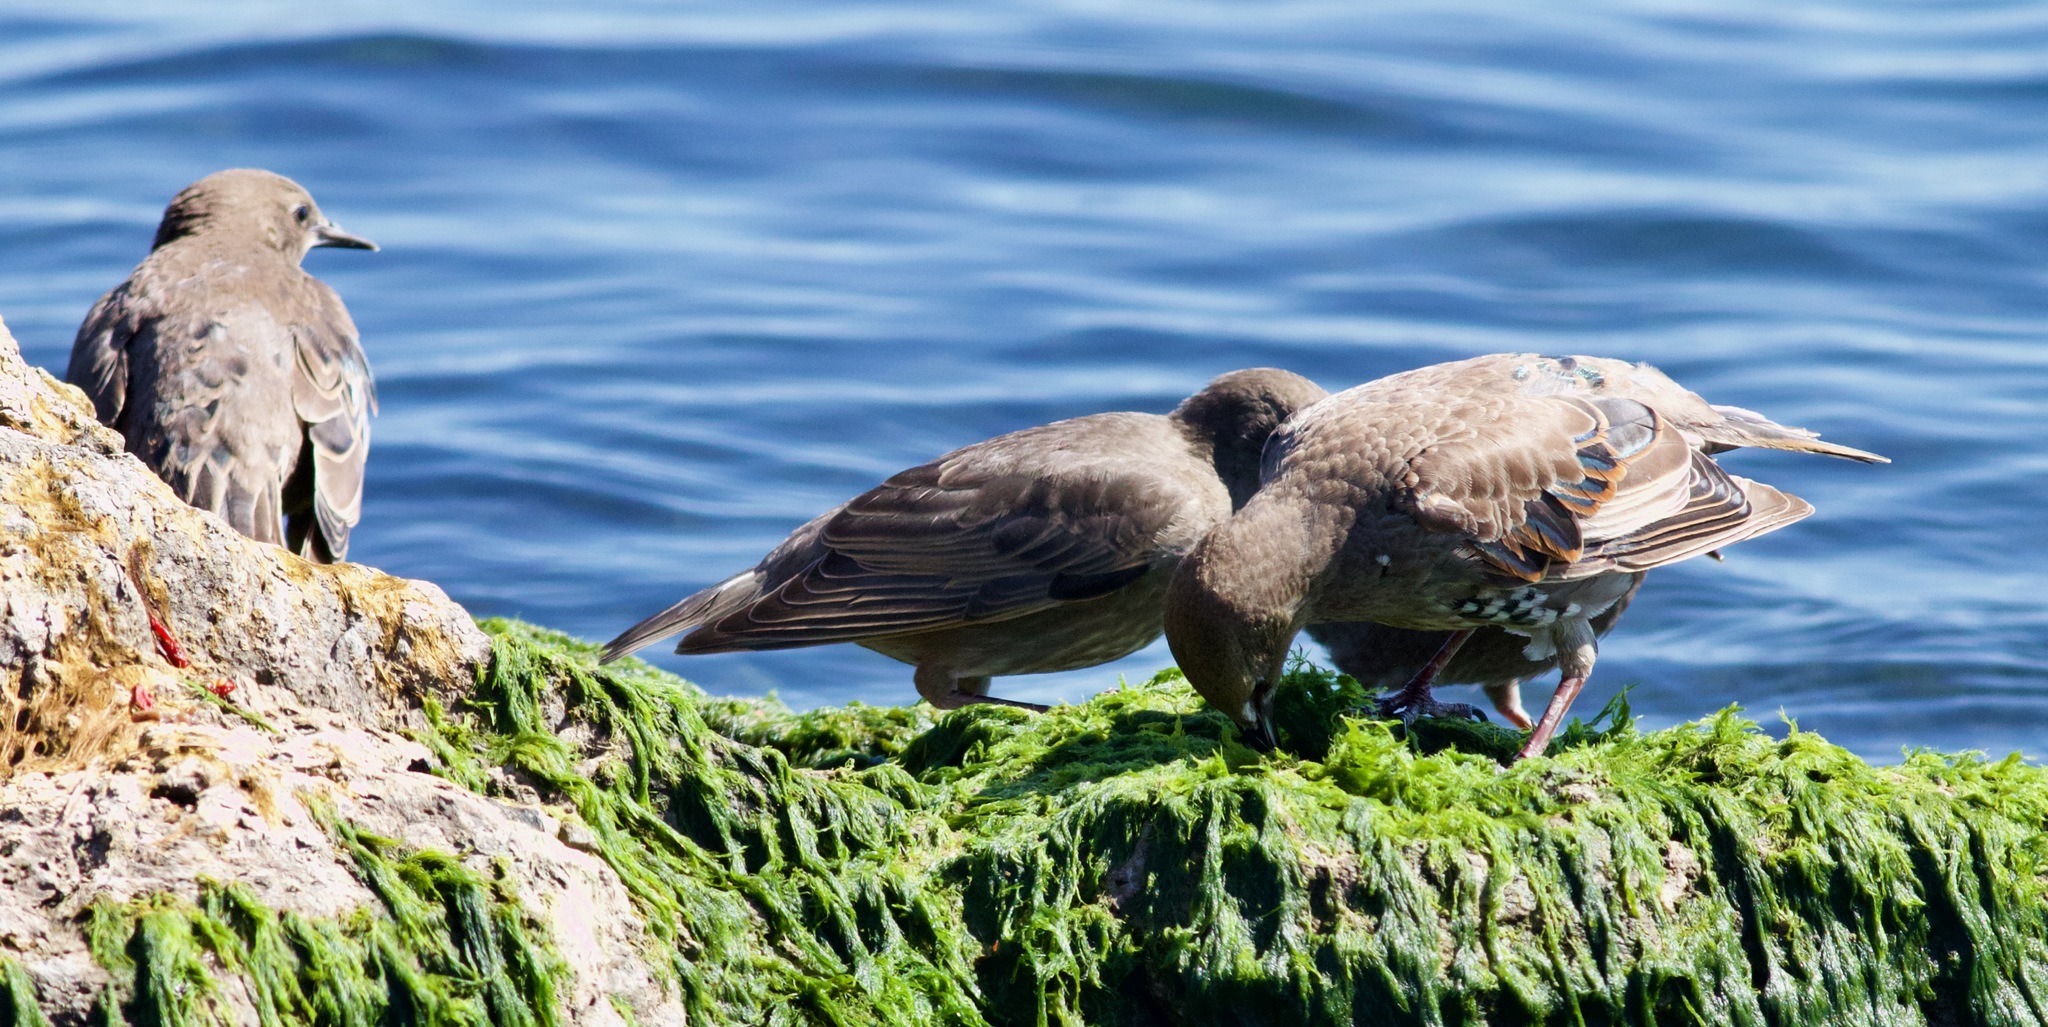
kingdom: Animalia
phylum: Chordata
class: Aves
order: Passeriformes
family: Sturnidae
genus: Sturnus
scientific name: Sturnus vulgaris
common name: Common starling
